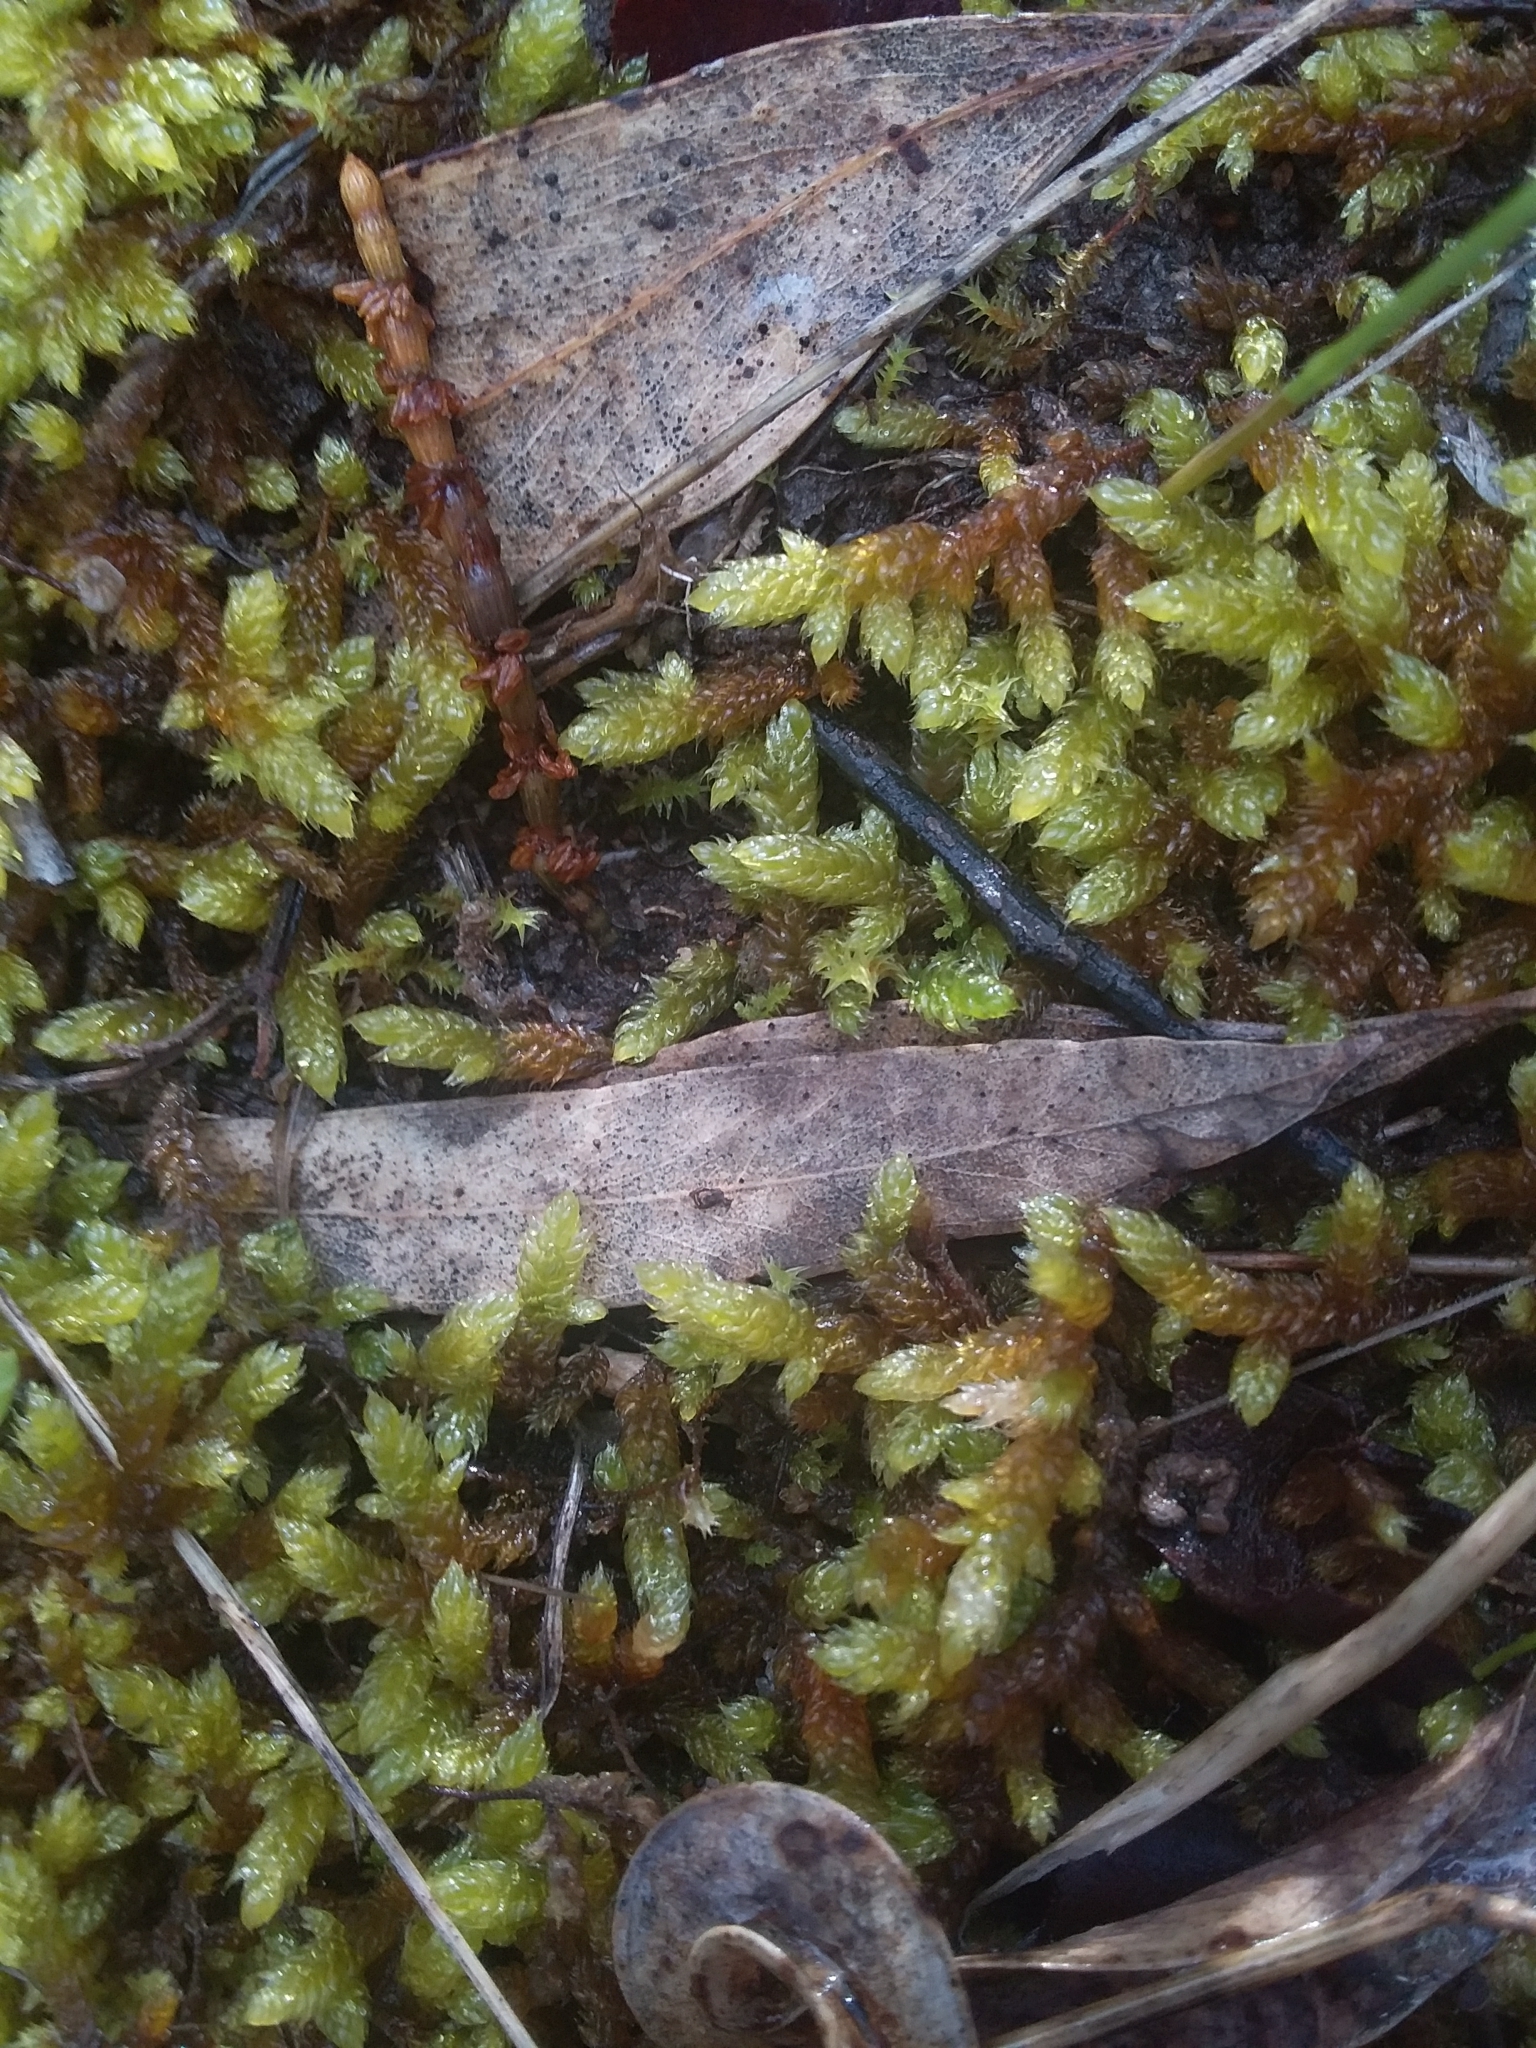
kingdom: Plantae
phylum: Bryophyta
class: Bryopsida
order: Hypnales
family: Hypnaceae
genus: Hypnum
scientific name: Hypnum cupressiforme
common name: Cypress-leaved plait-moss
